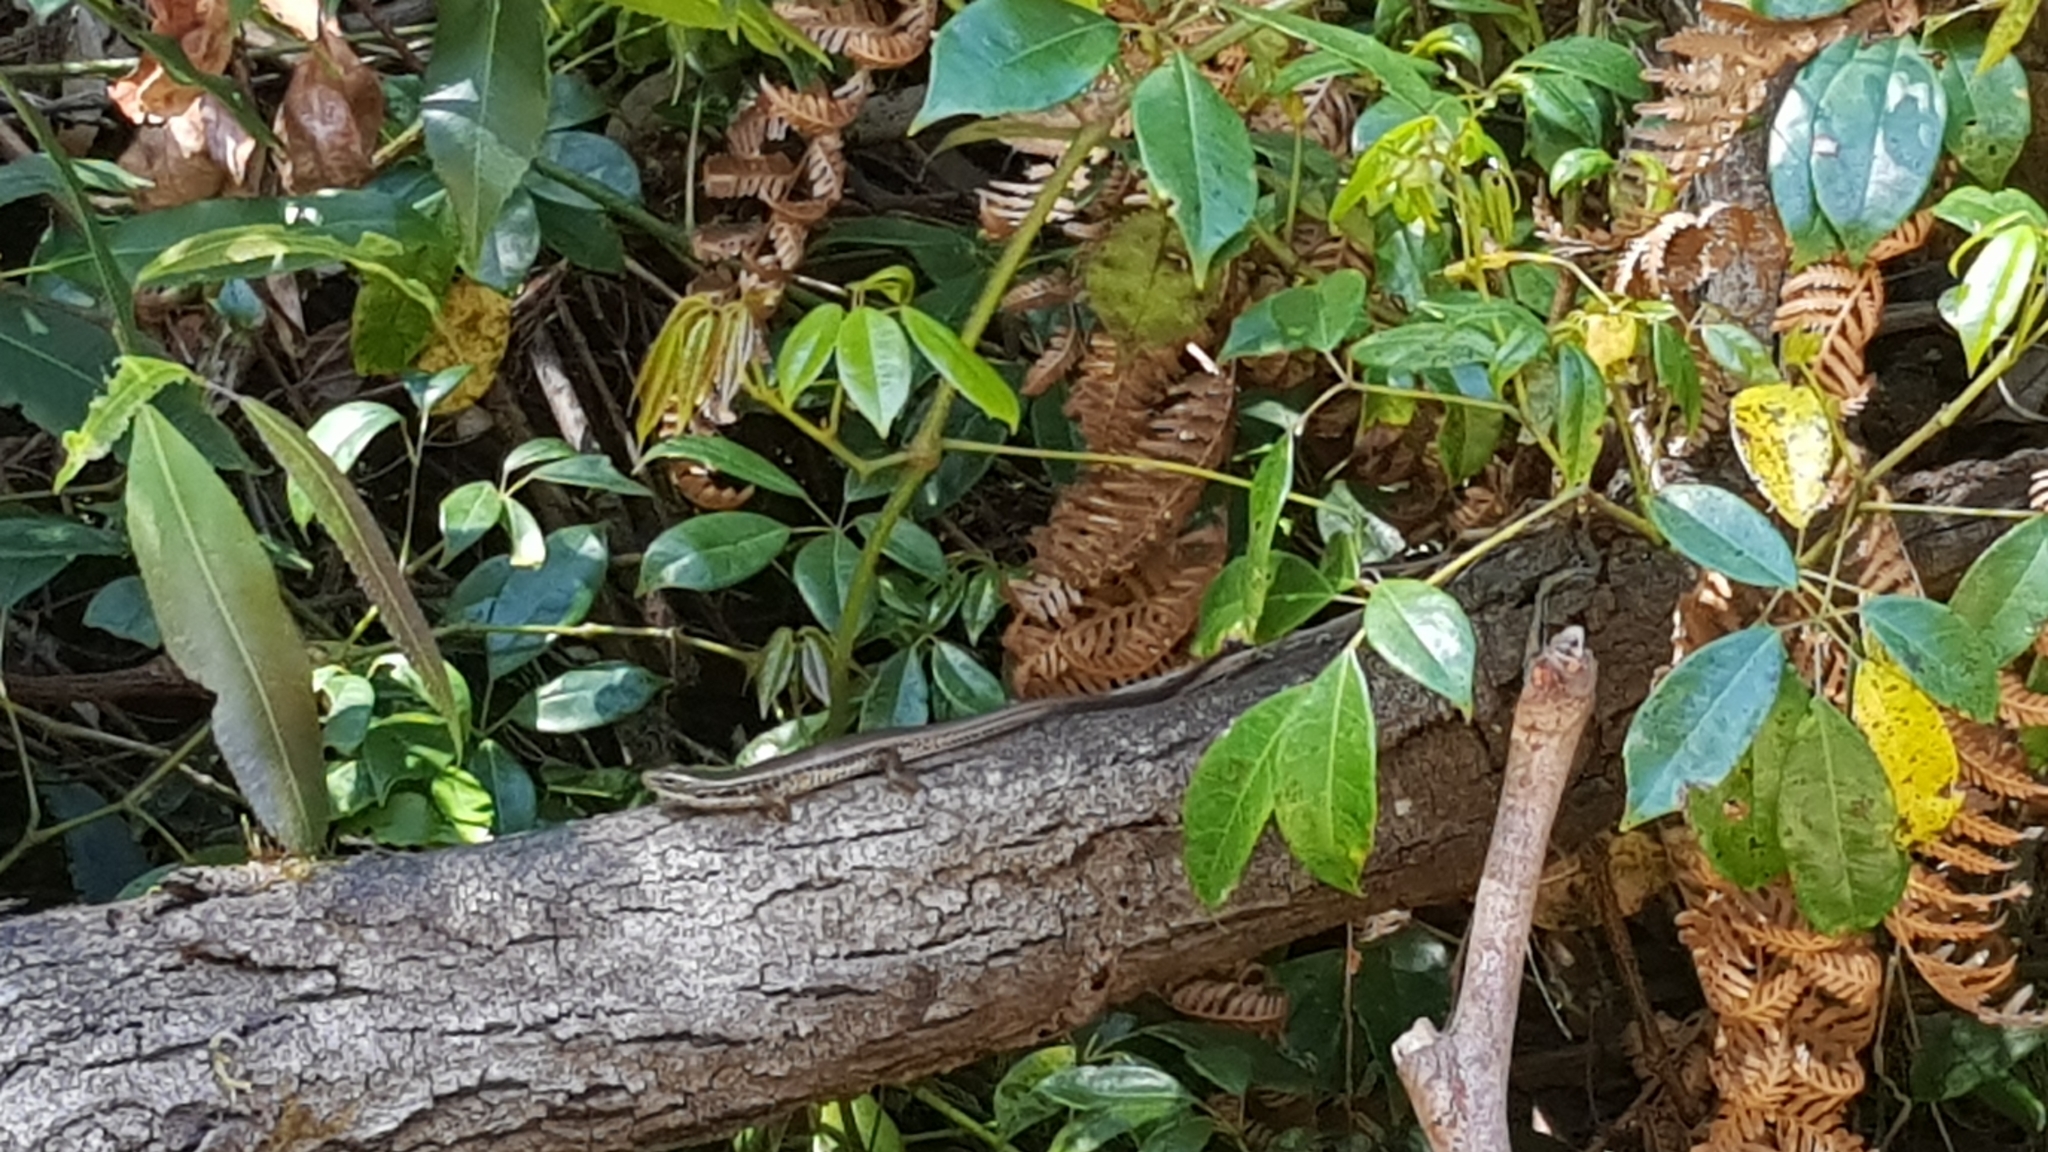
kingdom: Animalia
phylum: Chordata
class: Squamata
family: Scincidae
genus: Eulamprus
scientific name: Eulamprus quoyii
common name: Eastern water skink
